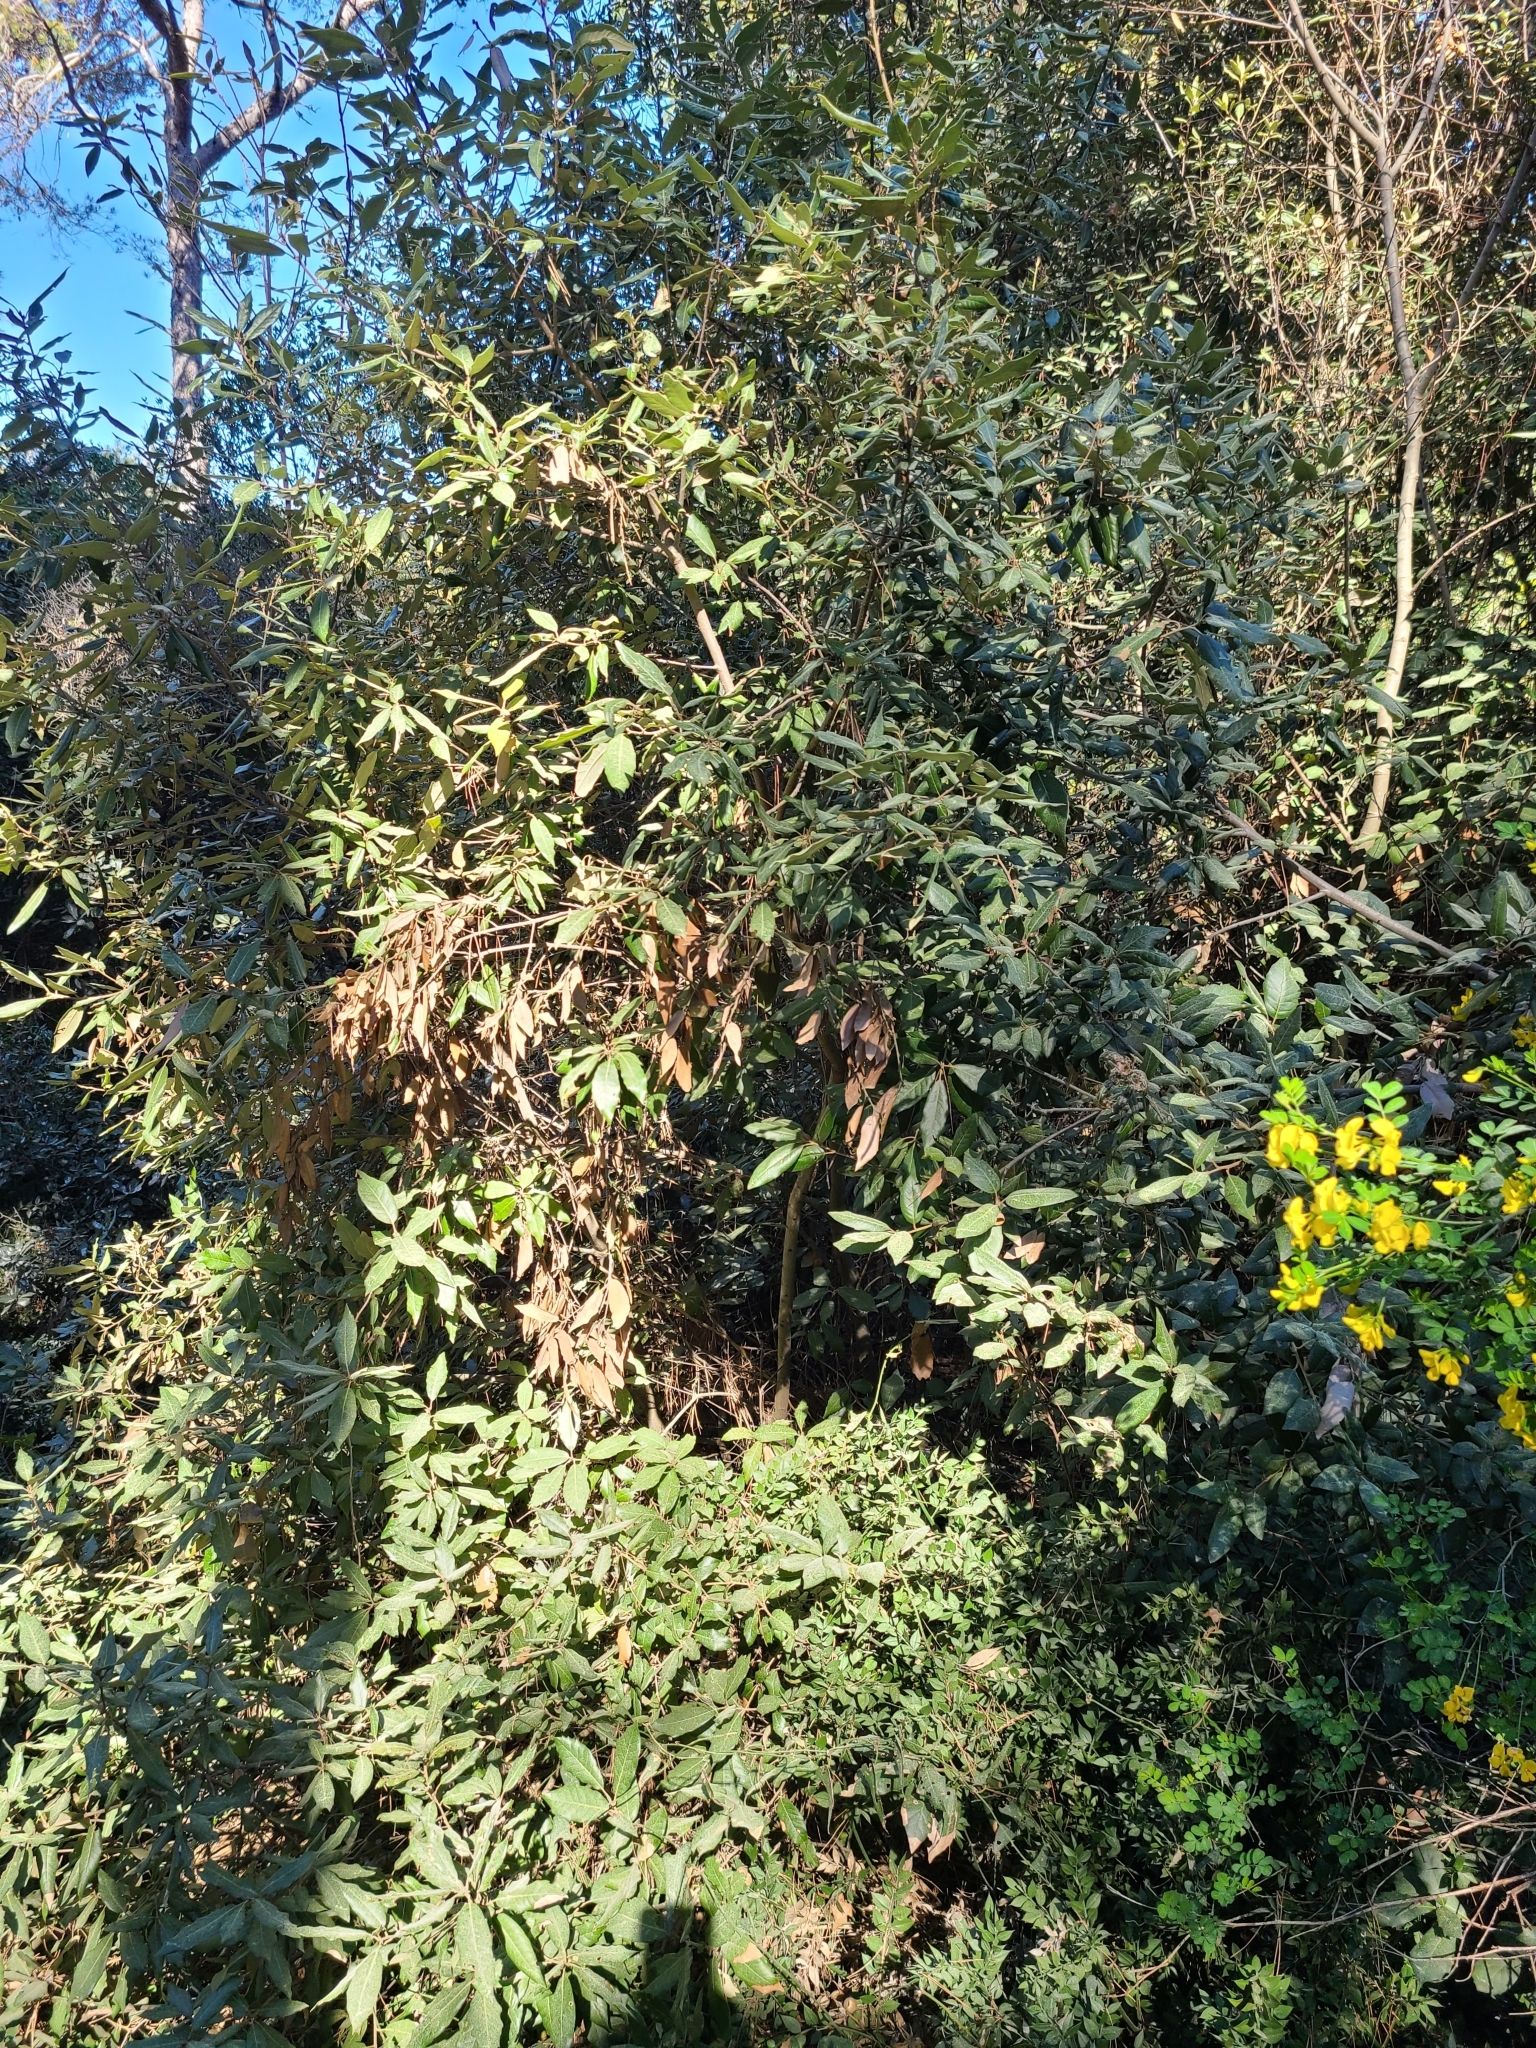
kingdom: Plantae
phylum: Tracheophyta
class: Magnoliopsida
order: Fagales
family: Fagaceae
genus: Quercus
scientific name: Quercus ilex
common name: Evergreen oak
